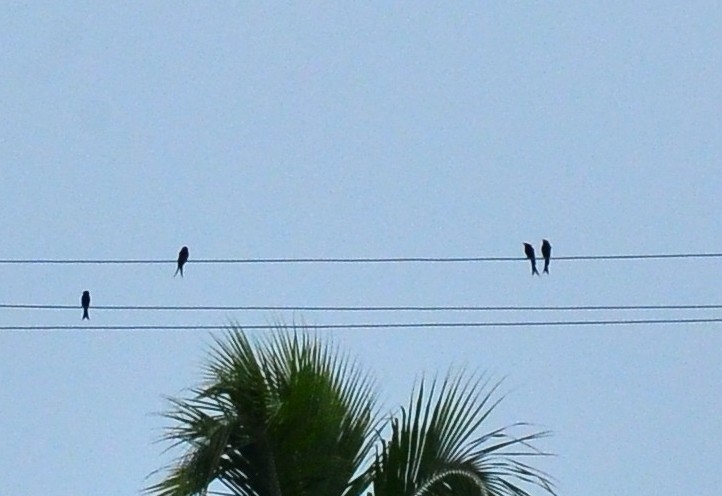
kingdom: Animalia
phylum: Chordata
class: Aves
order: Passeriformes
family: Dicruridae
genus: Dicrurus
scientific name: Dicrurus macrocercus
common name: Black drongo
